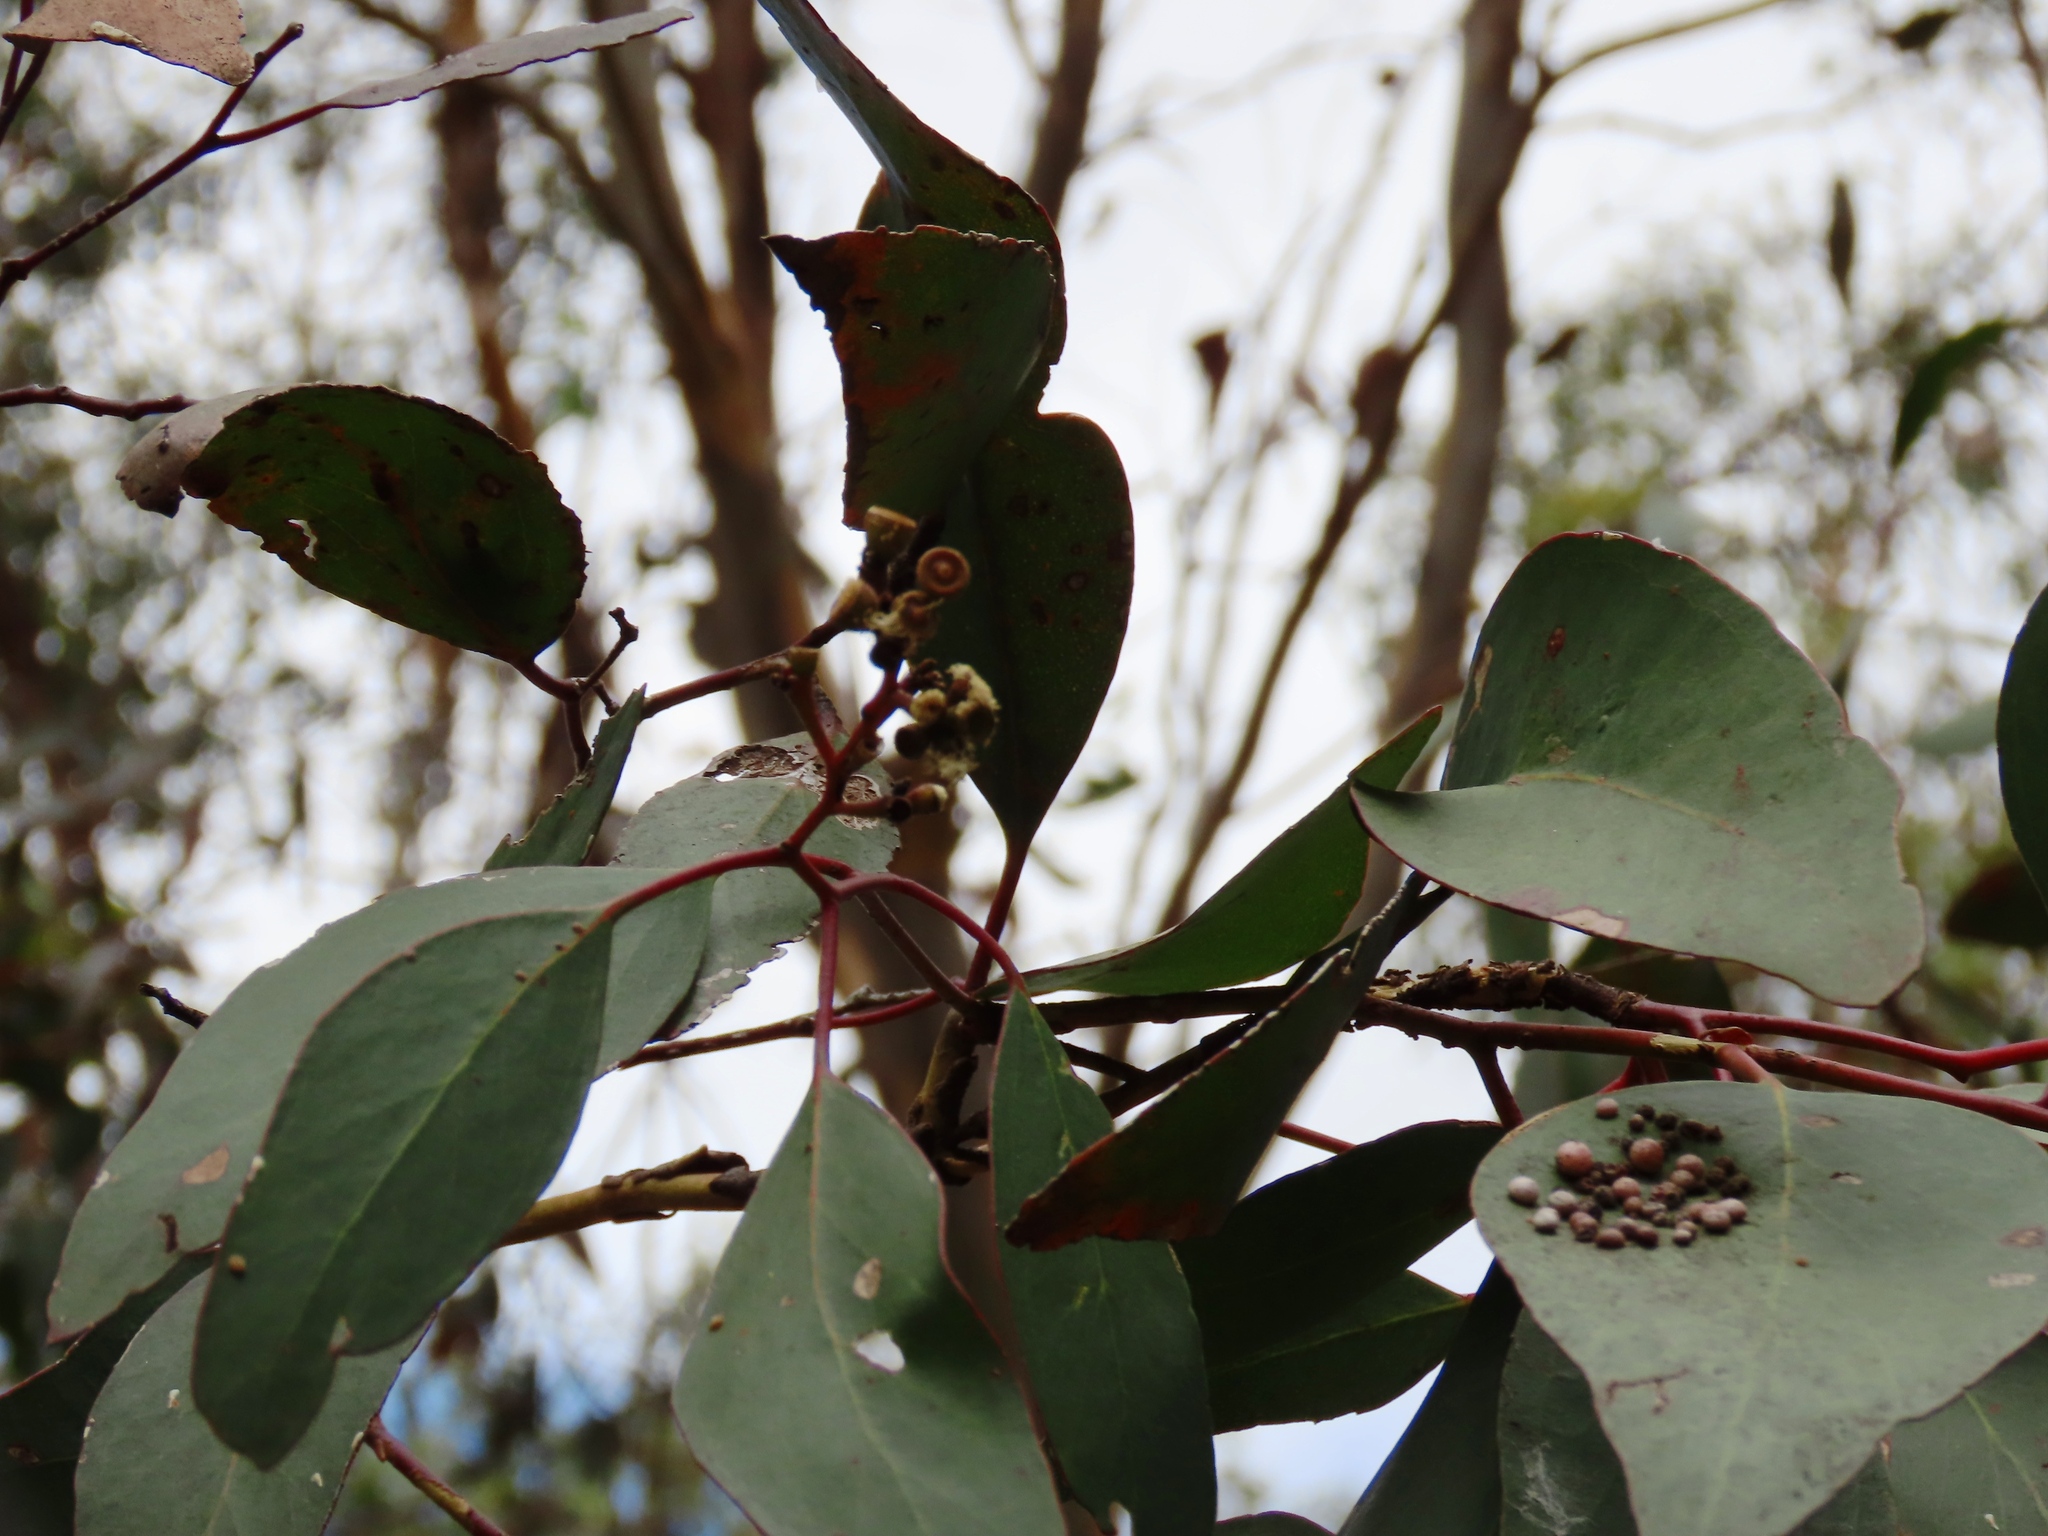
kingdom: Plantae
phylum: Tracheophyta
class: Magnoliopsida
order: Myrtales
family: Myrtaceae
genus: Eucalyptus
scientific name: Eucalyptus behriana
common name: Bull mallee
